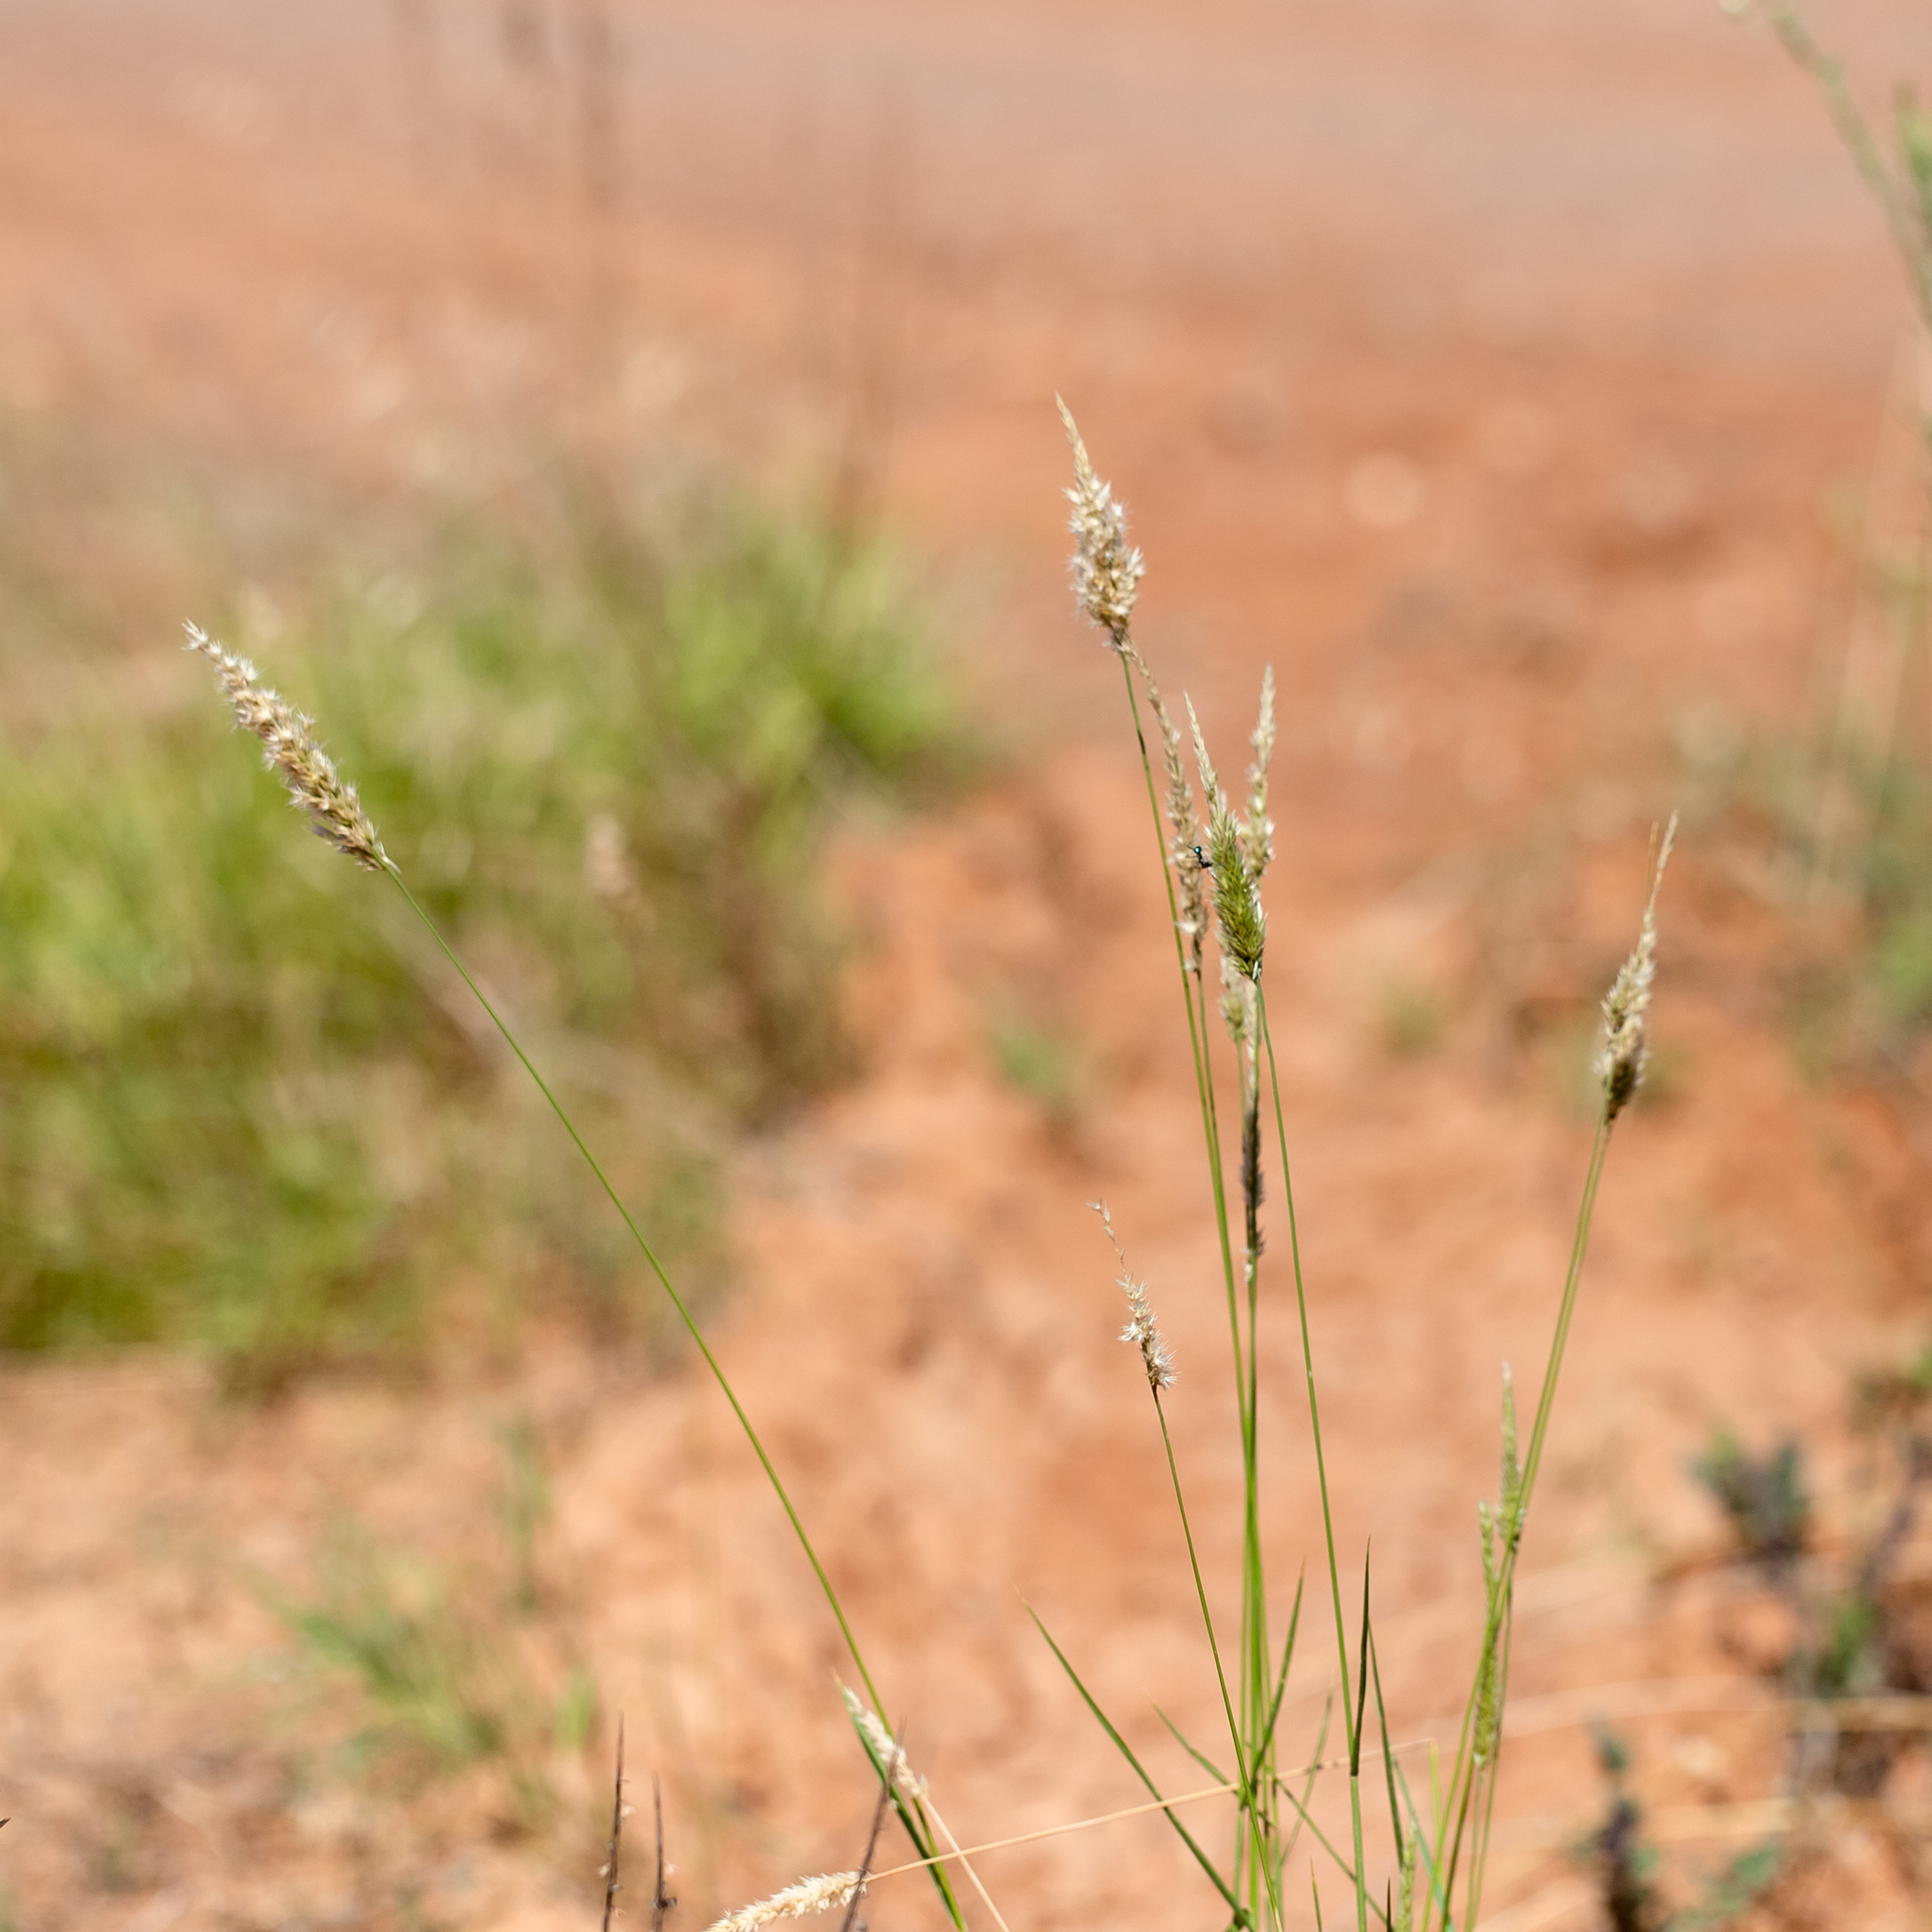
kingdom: Plantae
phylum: Tracheophyta
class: Liliopsida
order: Poales
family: Poaceae
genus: Enneapogon
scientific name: Enneapogon nigricans
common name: Pappus grass
